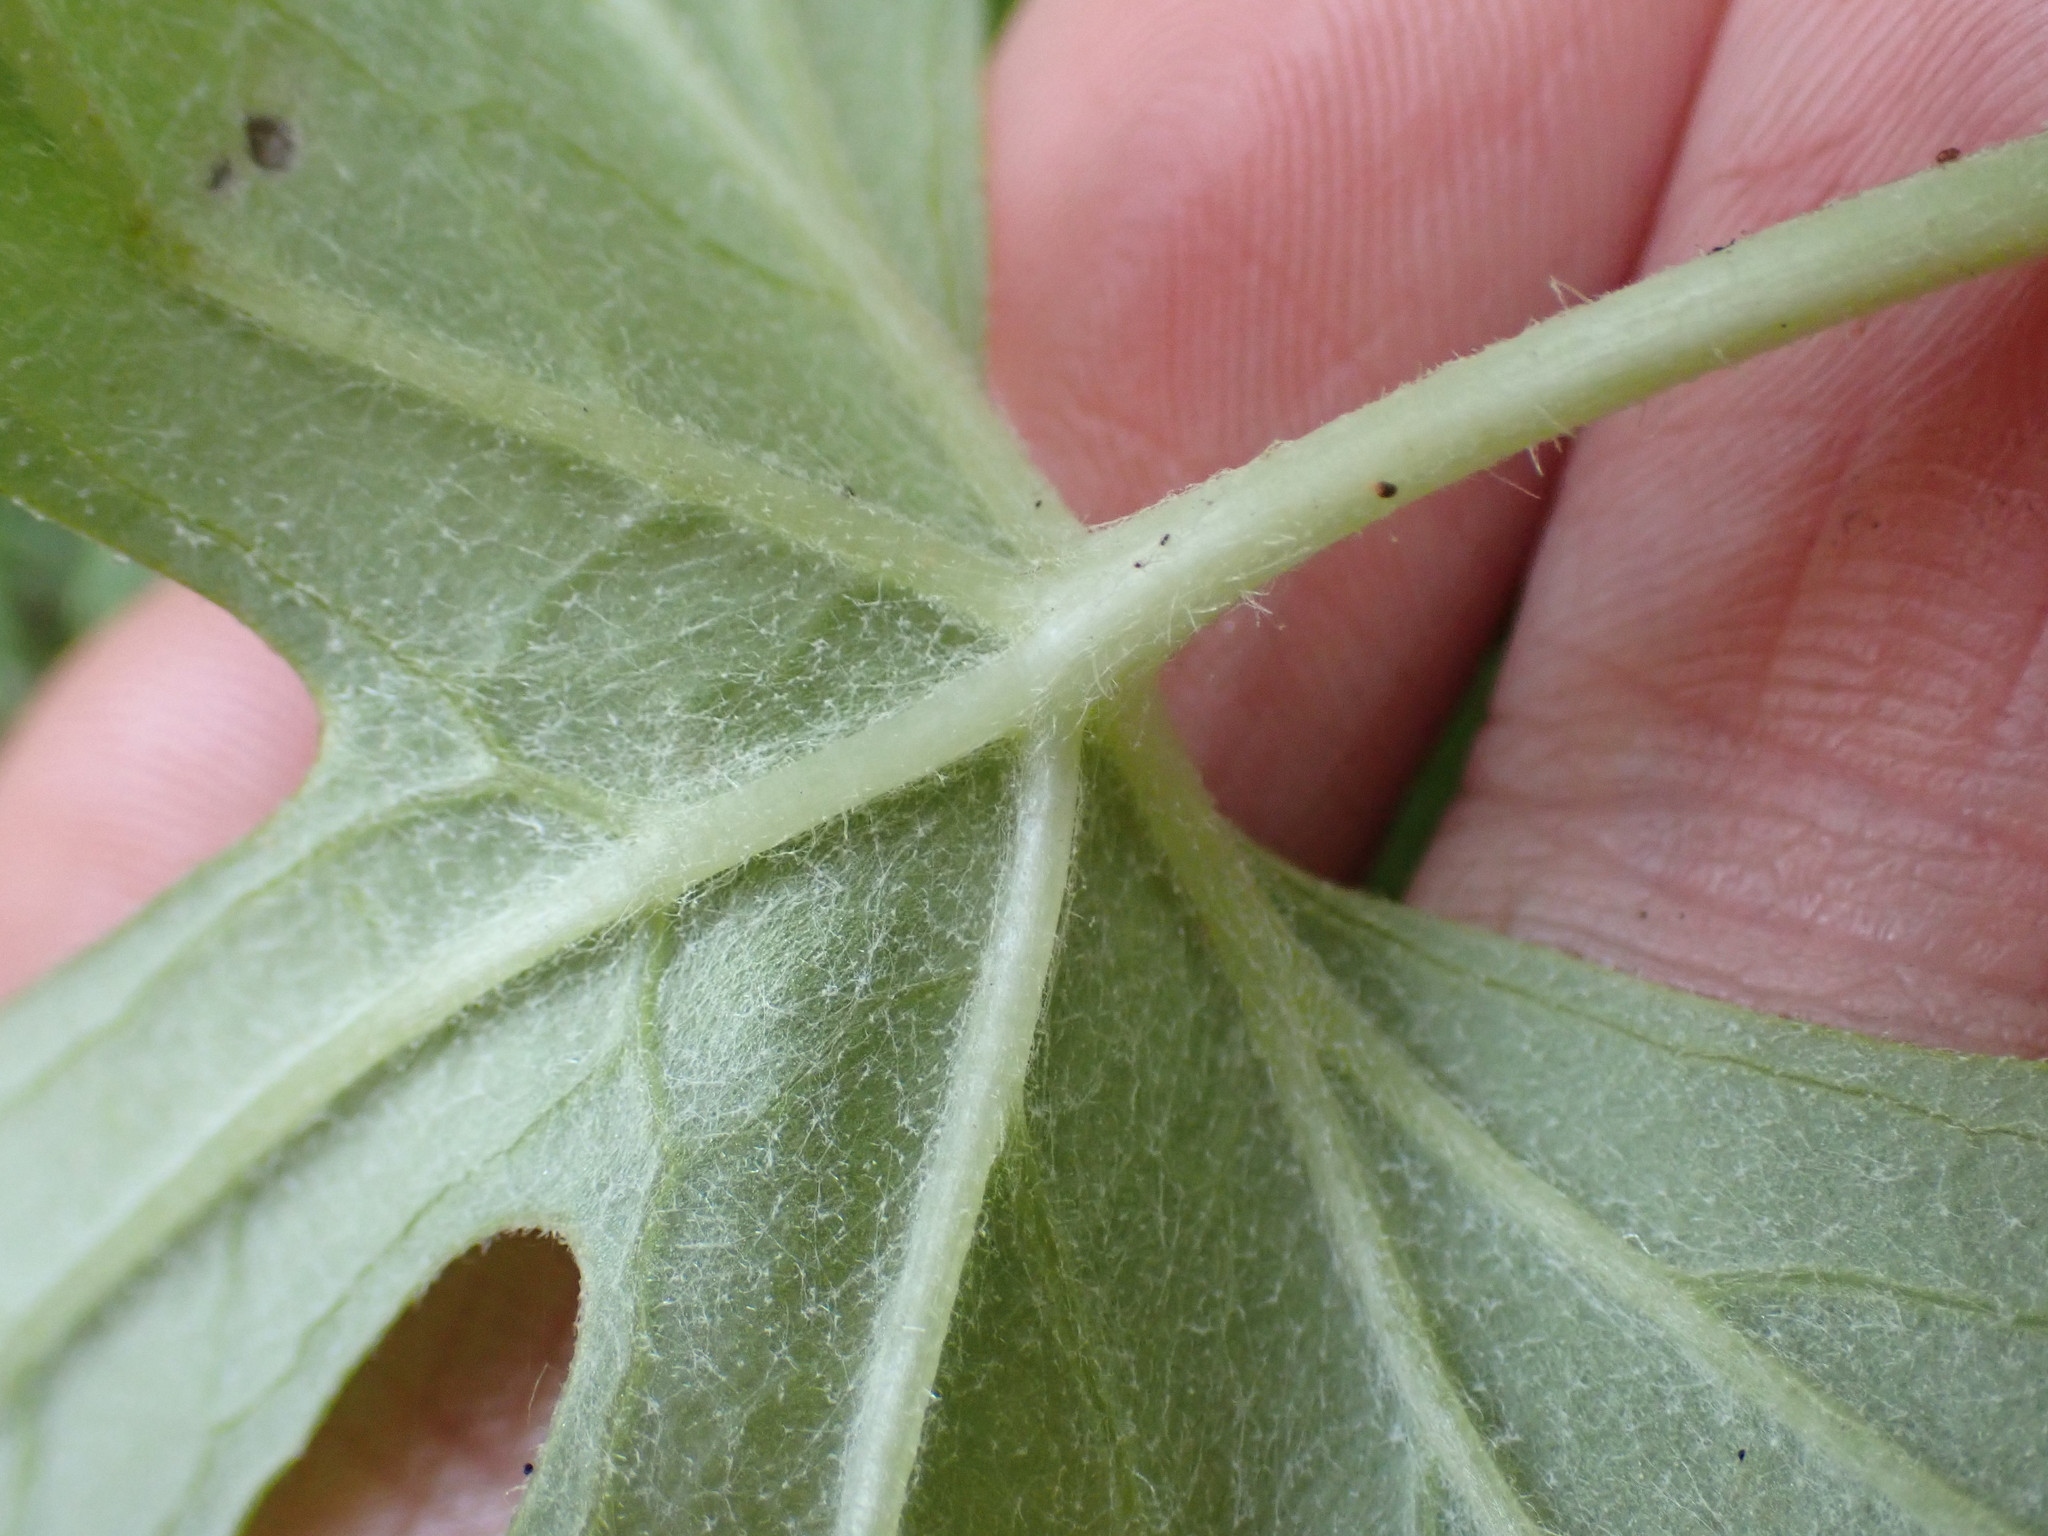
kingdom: Plantae
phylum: Tracheophyta
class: Magnoliopsida
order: Asterales
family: Asteraceae
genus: Petasites
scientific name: Petasites frigidus
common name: Arctic butterbur
